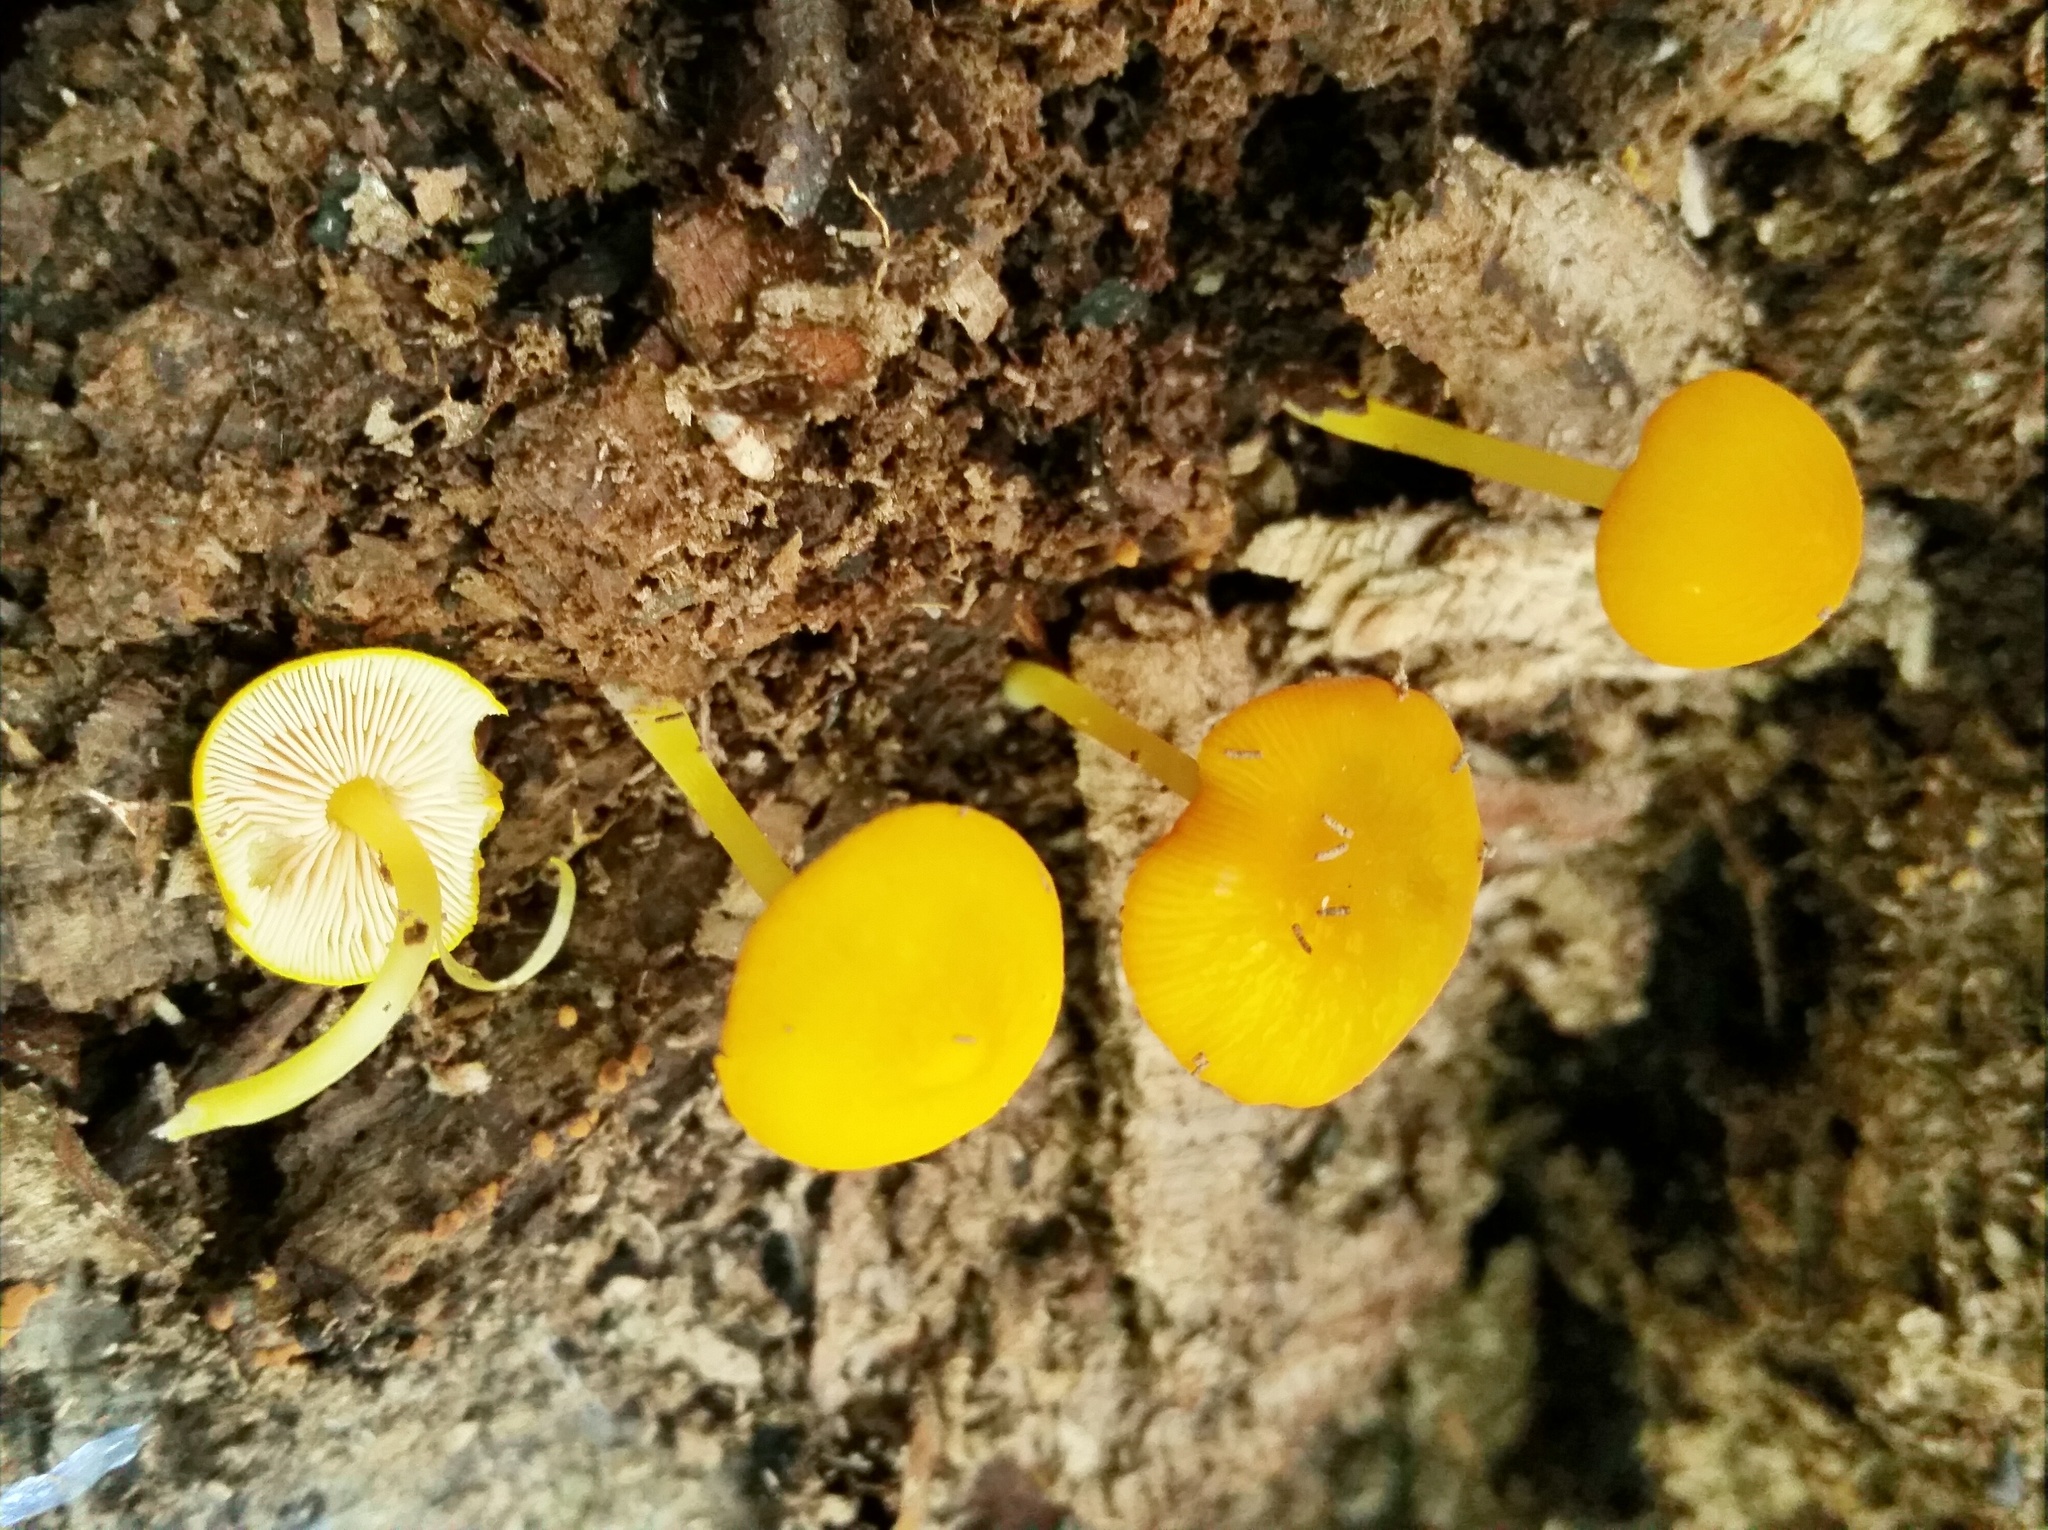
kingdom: Fungi
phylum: Basidiomycota
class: Agaricomycetes
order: Agaricales
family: Pluteaceae
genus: Pluteus
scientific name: Pluteus chrysophlebius
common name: Yellow deer mushroom
